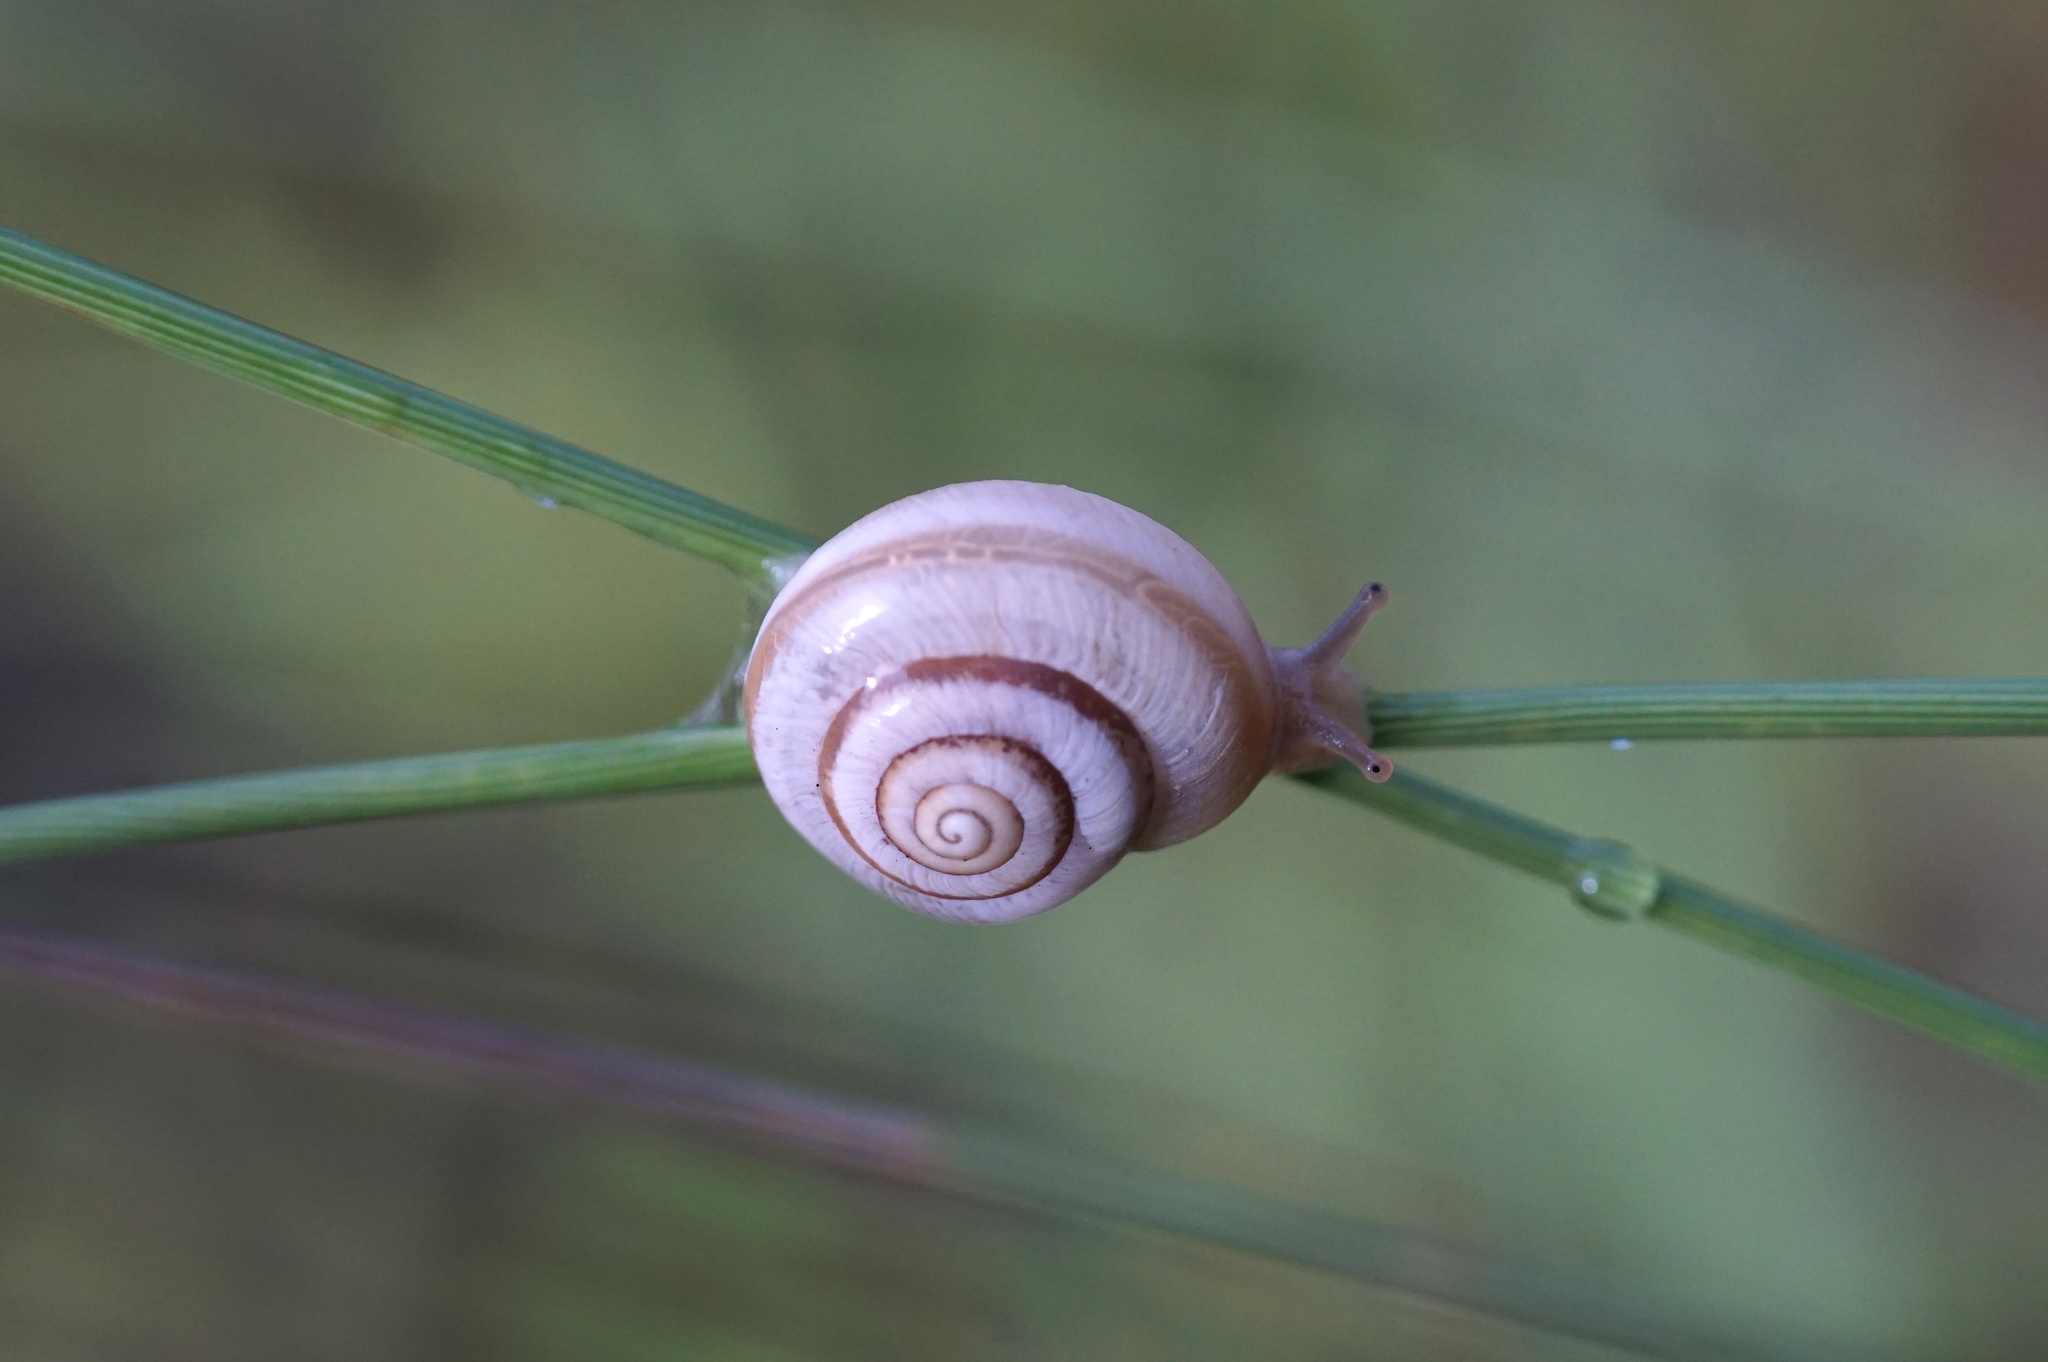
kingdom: Animalia
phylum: Mollusca
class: Gastropoda
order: Stylommatophora
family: Polygyridae
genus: Praticolella
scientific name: Praticolella mexicana
